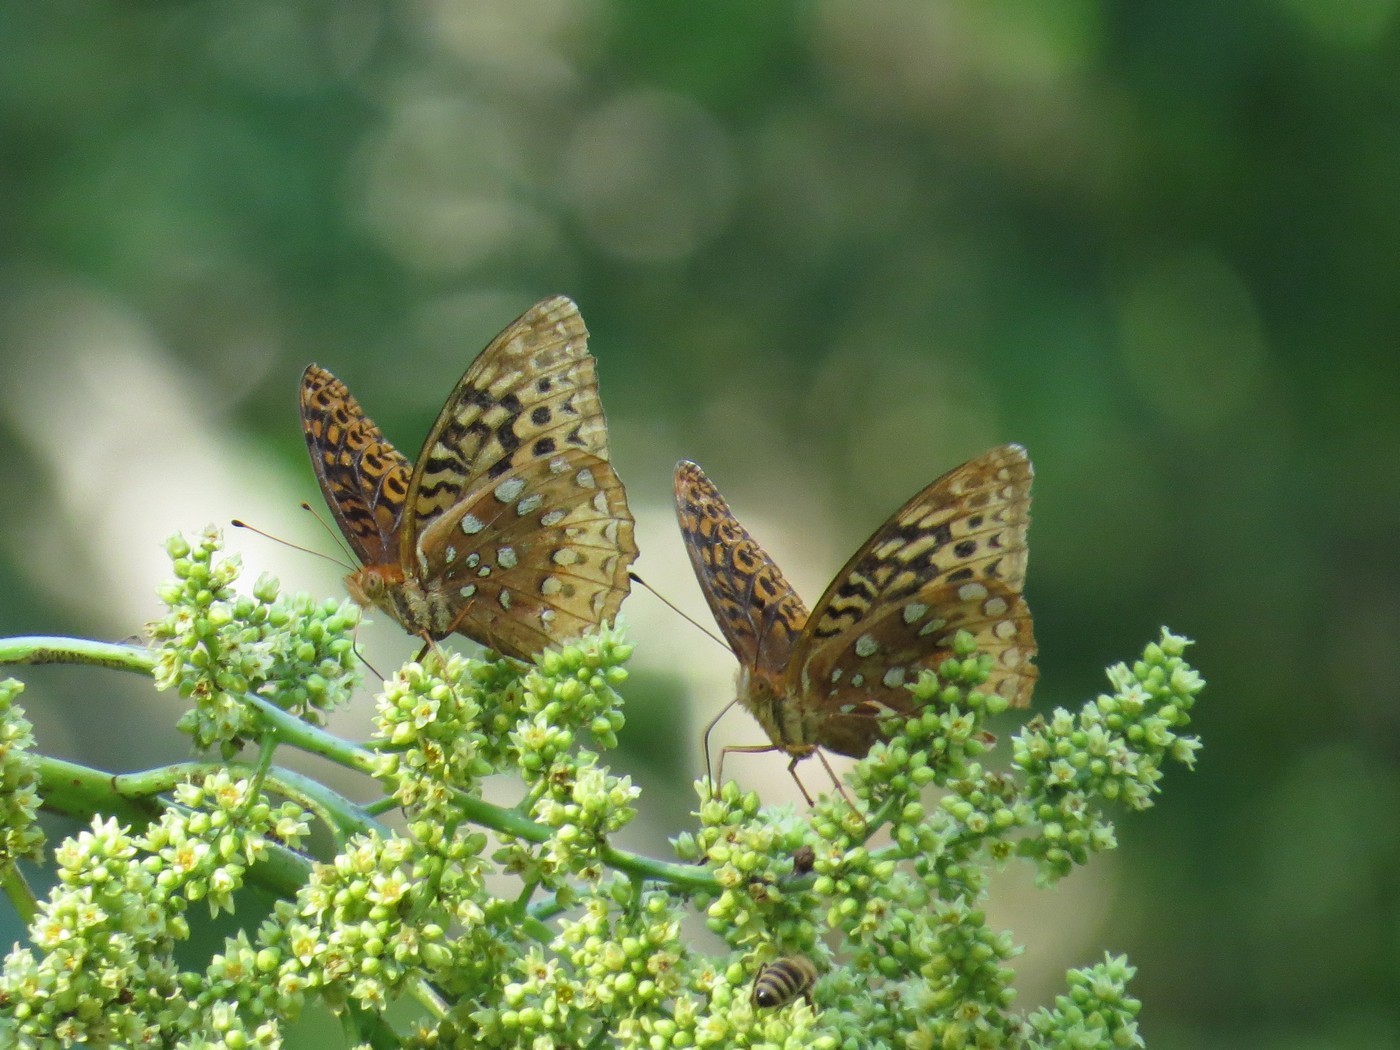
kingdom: Animalia
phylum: Arthropoda
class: Insecta
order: Lepidoptera
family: Nymphalidae
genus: Speyeria
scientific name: Speyeria cybele
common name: Great spangled fritillary
